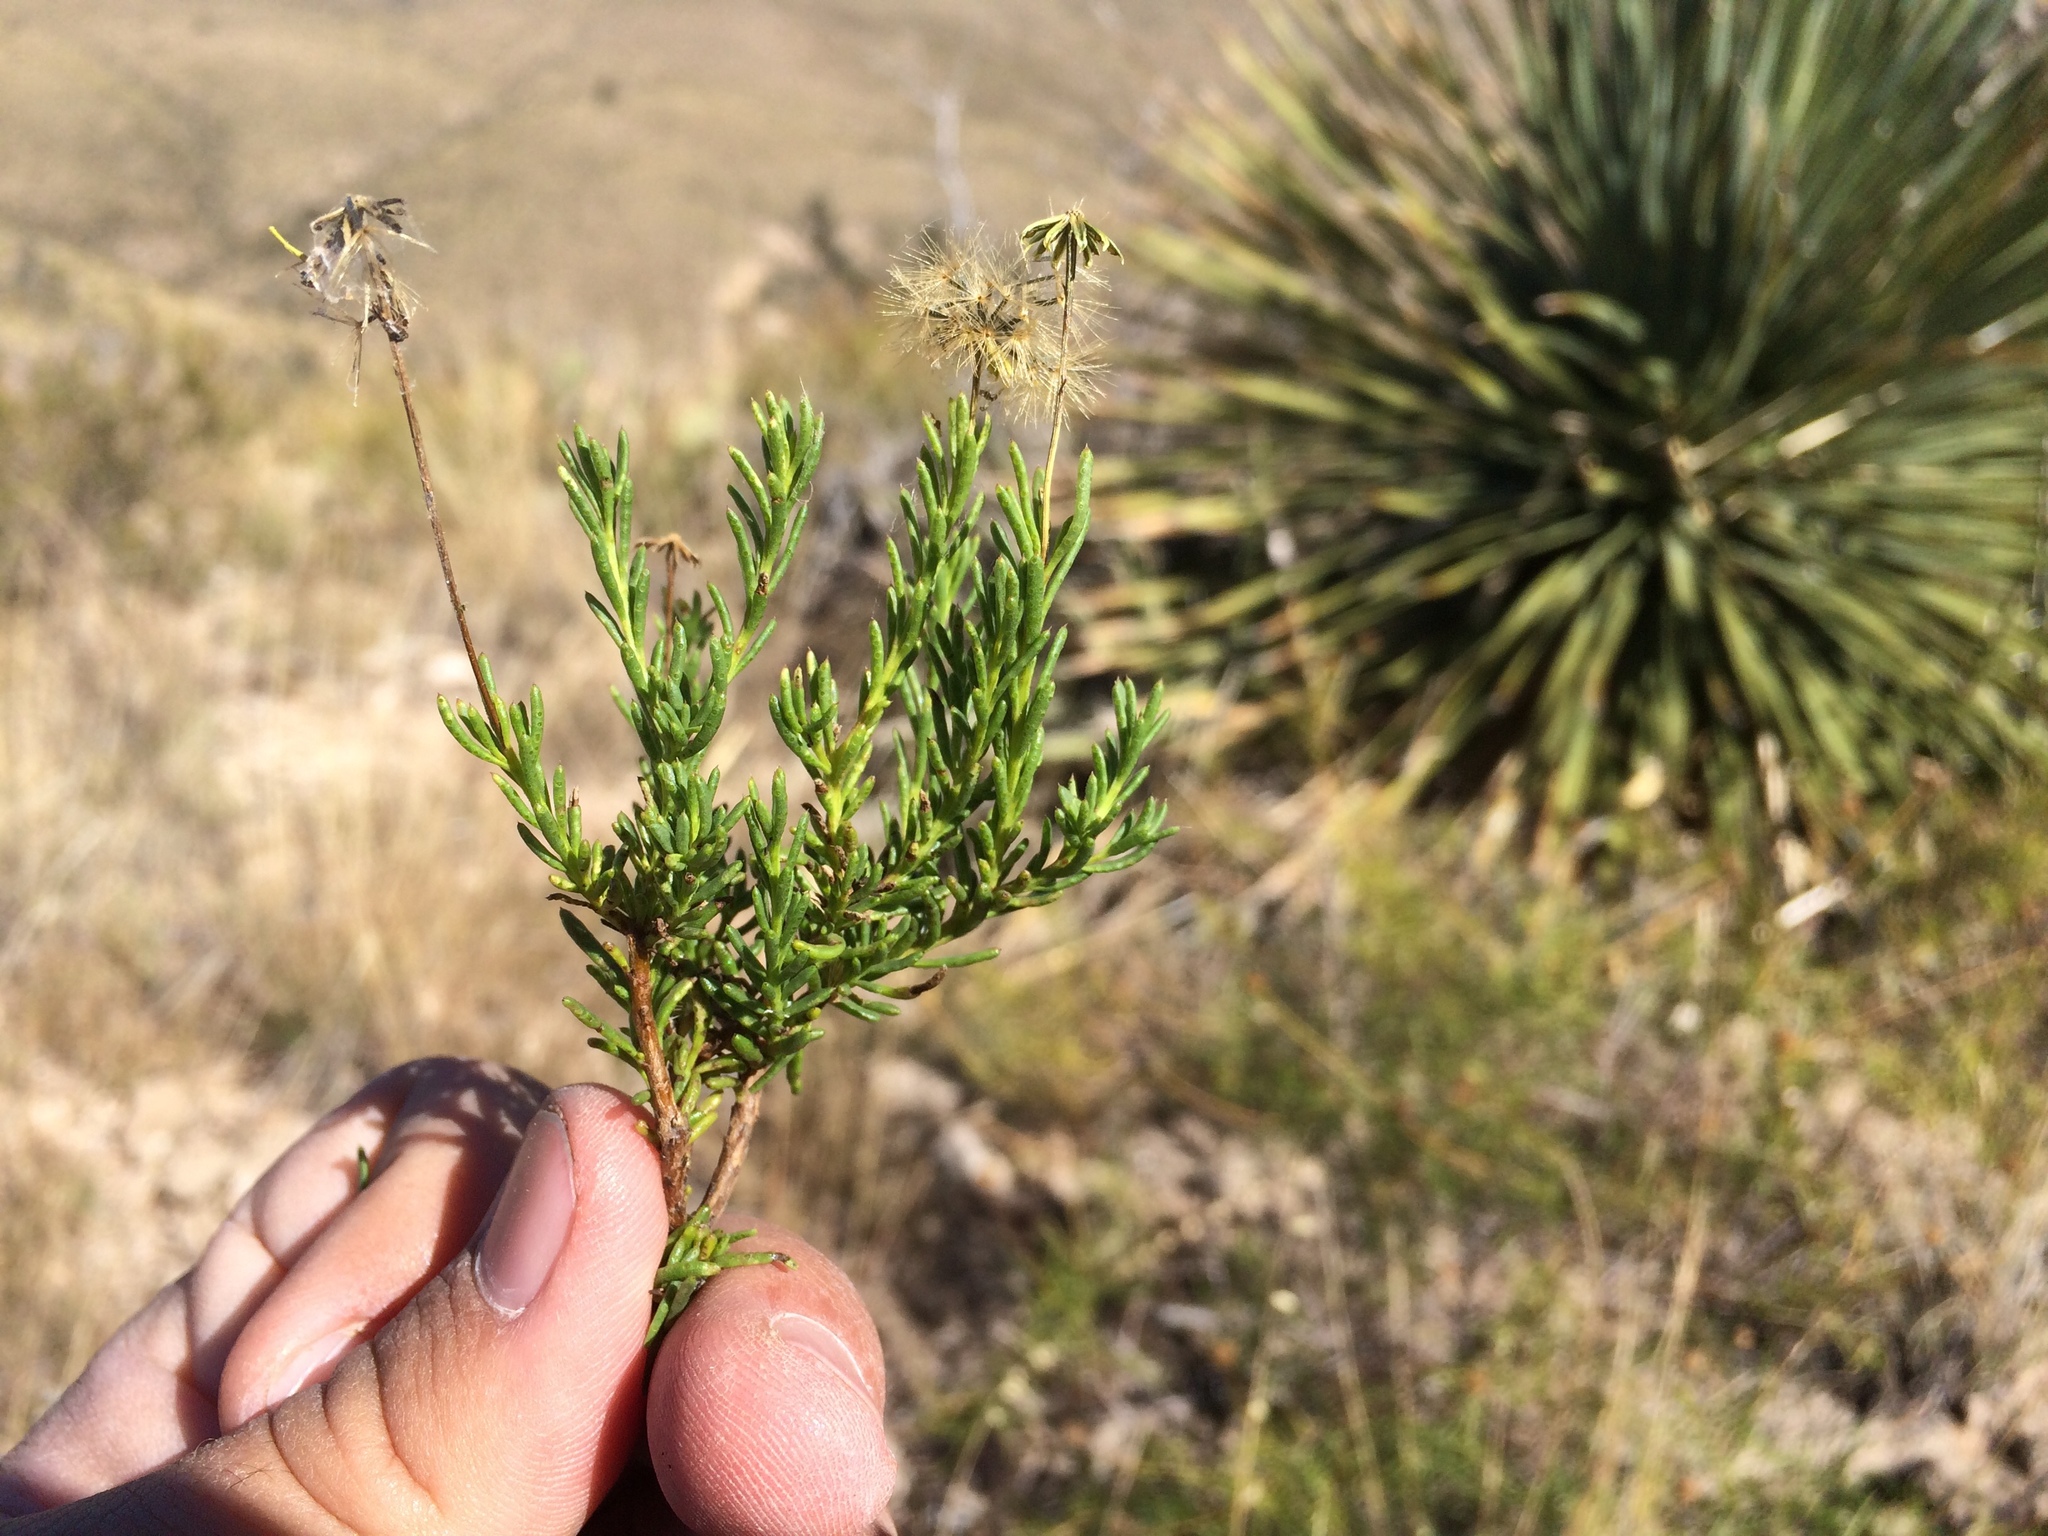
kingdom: Plantae
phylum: Tracheophyta
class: Magnoliopsida
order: Asterales
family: Asteraceae
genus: Chrysactinia
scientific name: Chrysactinia mexicana
